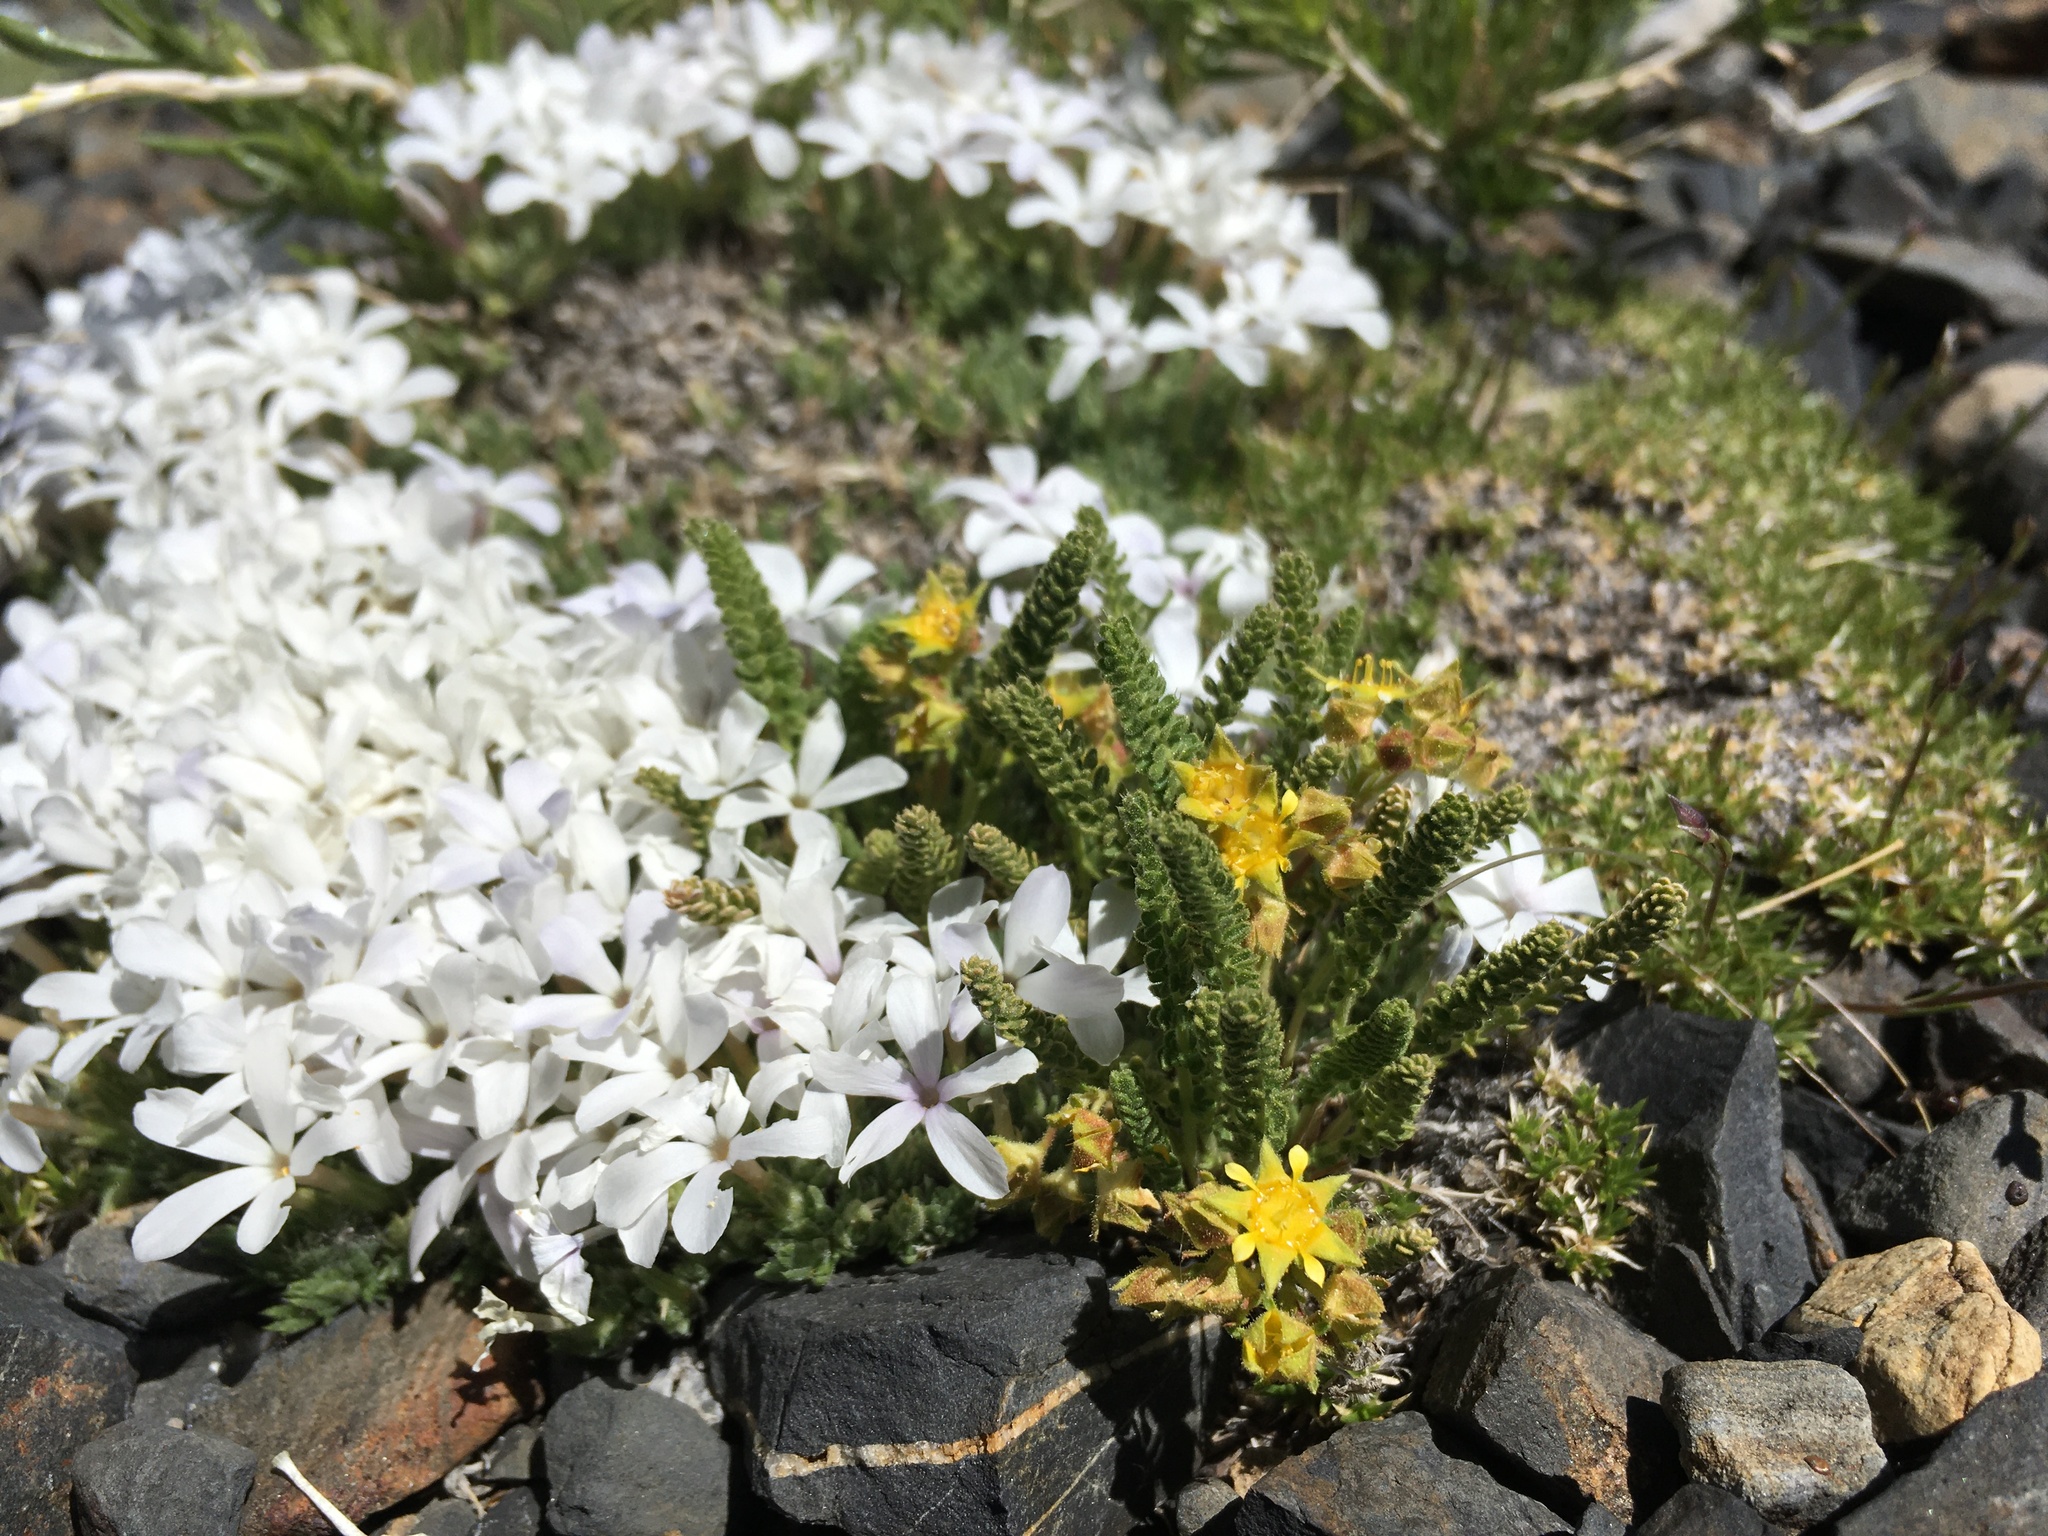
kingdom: Plantae
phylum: Tracheophyta
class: Magnoliopsida
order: Rosales
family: Rosaceae
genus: Potentilla
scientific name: Potentilla shockleyi
